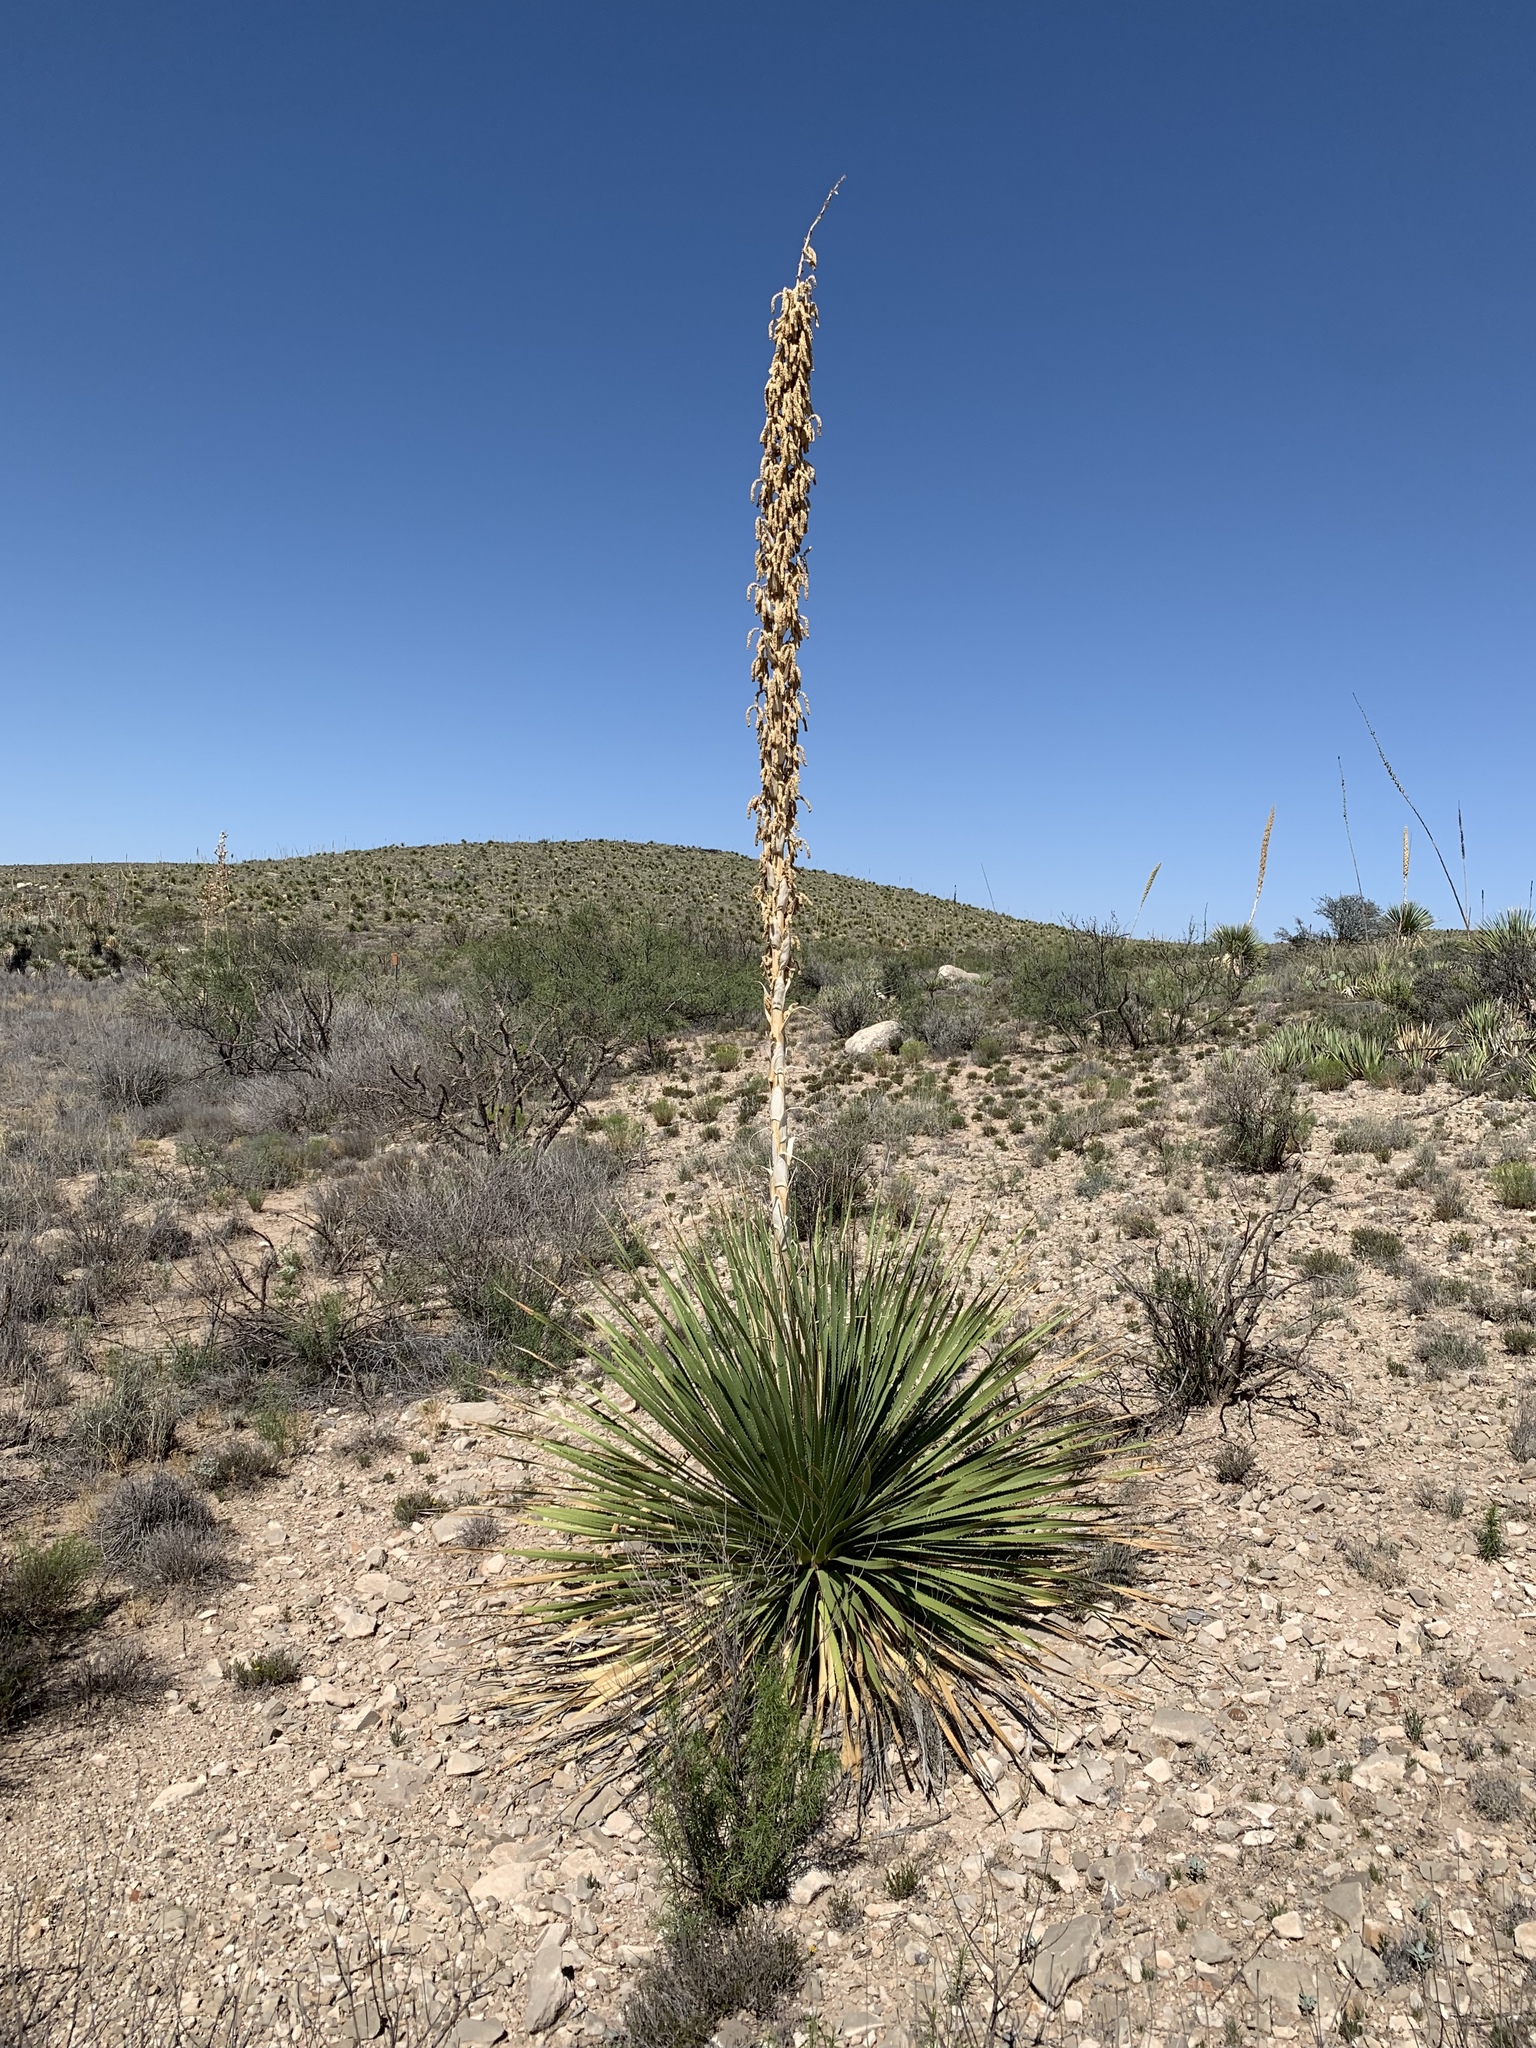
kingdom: Plantae
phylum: Tracheophyta
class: Liliopsida
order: Asparagales
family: Asparagaceae
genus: Dasylirion
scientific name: Dasylirion wheeleri
